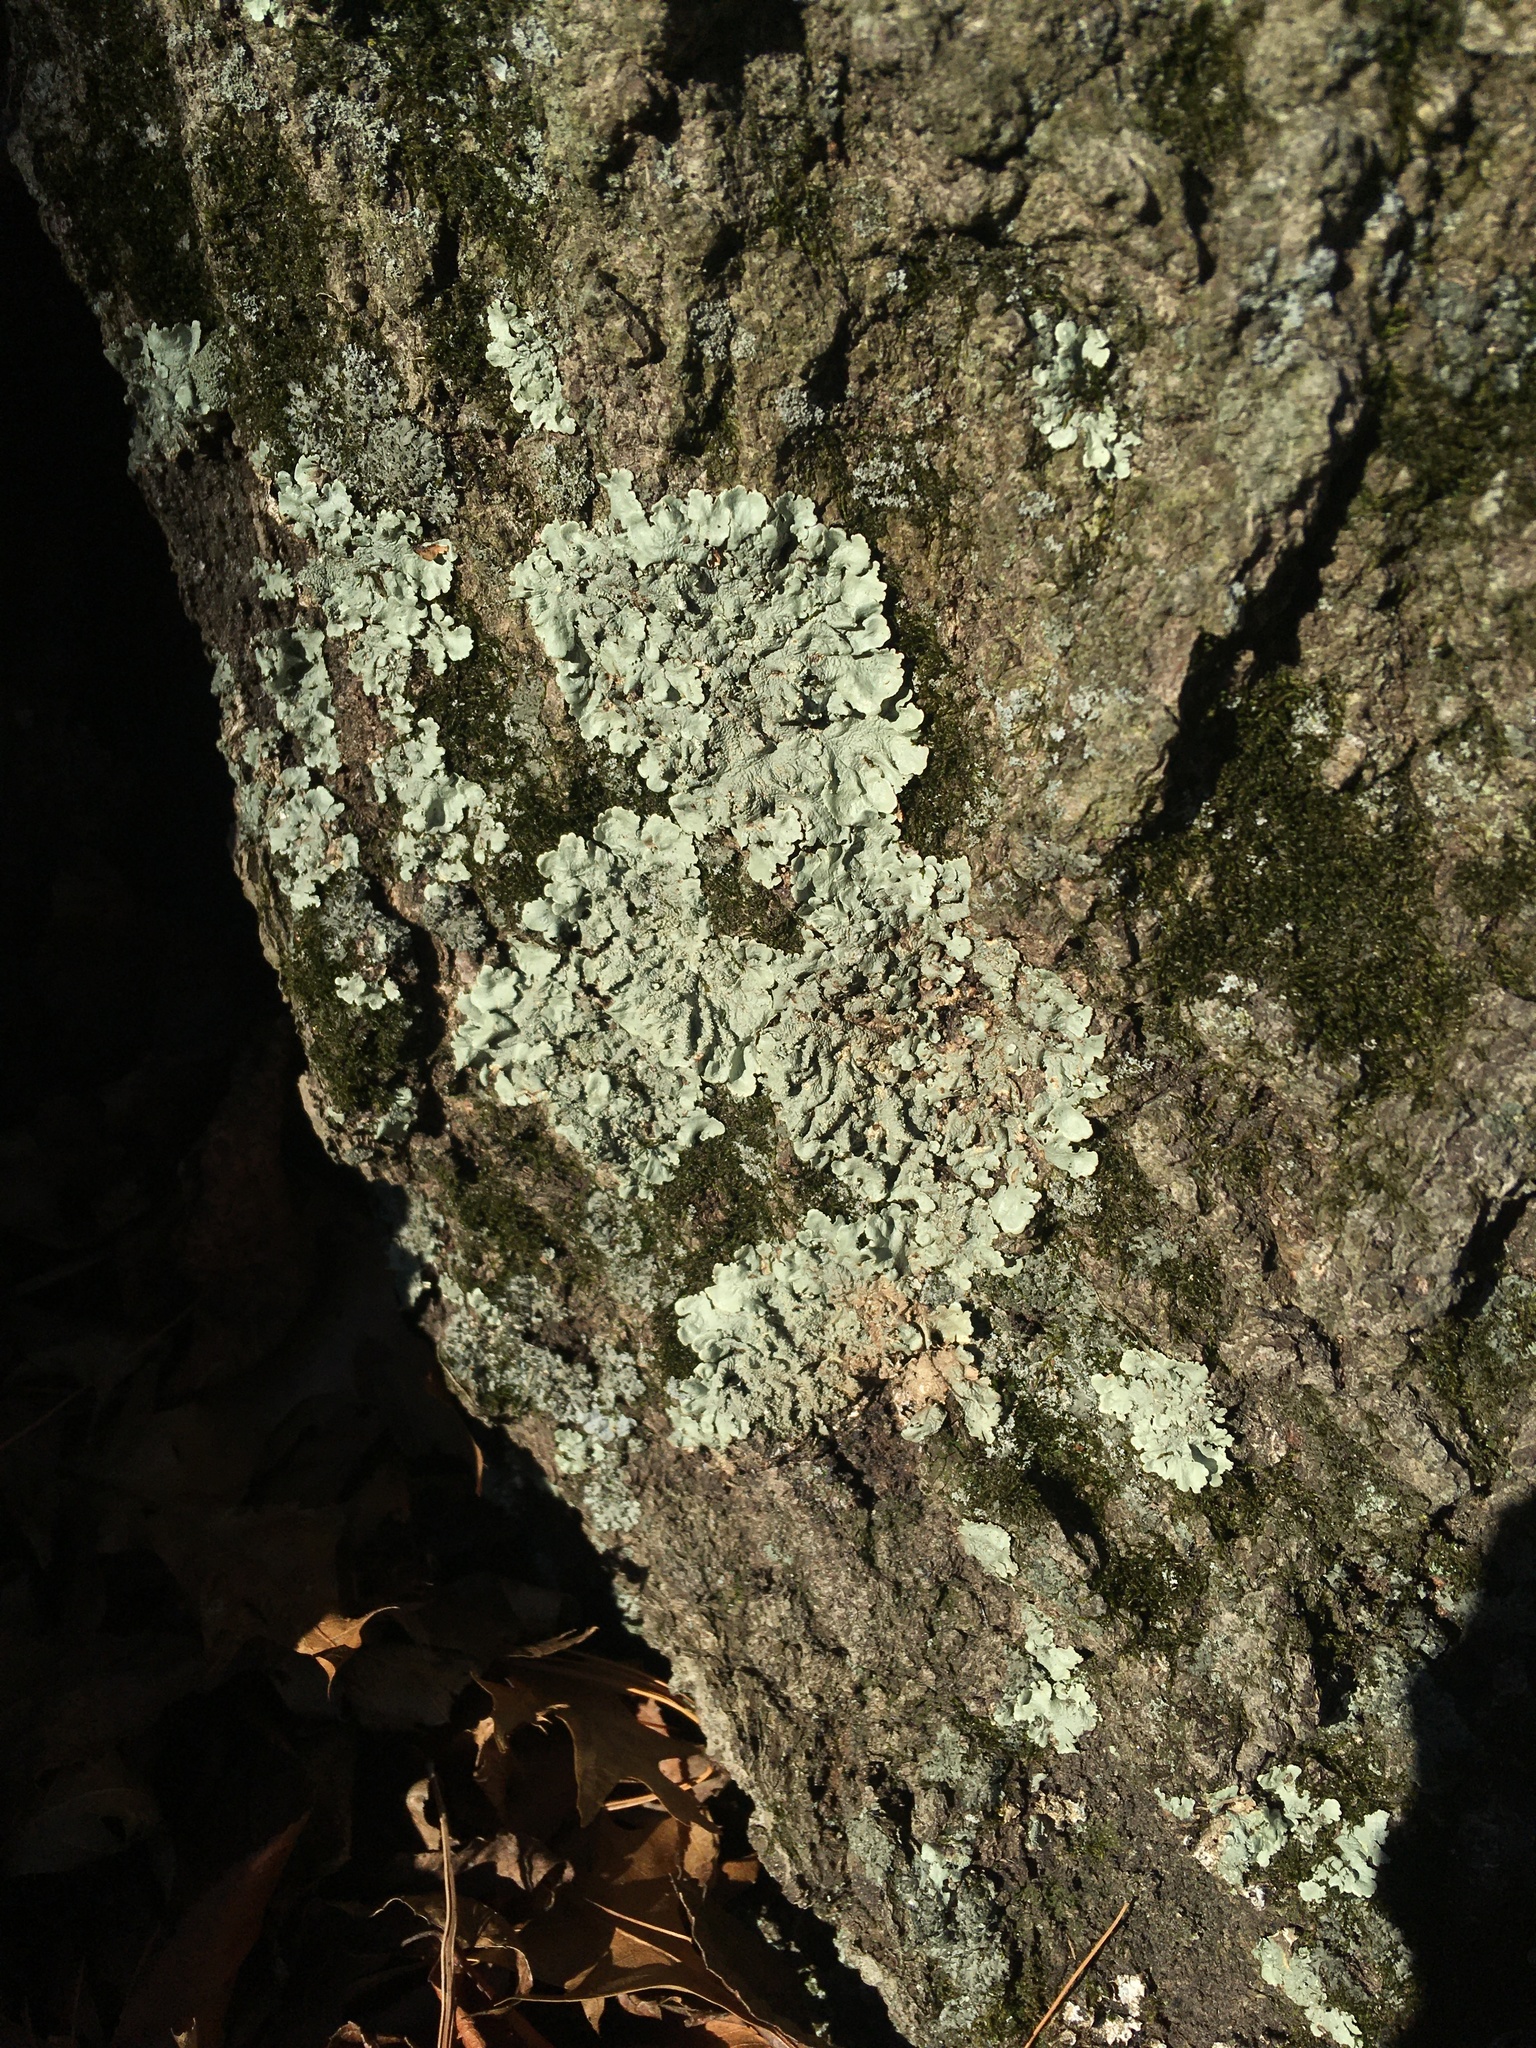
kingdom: Fungi
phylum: Ascomycota
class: Lecanoromycetes
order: Lecanorales
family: Parmeliaceae
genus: Flavoparmelia
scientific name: Flavoparmelia caperata
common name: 40-mile per hour lichen
